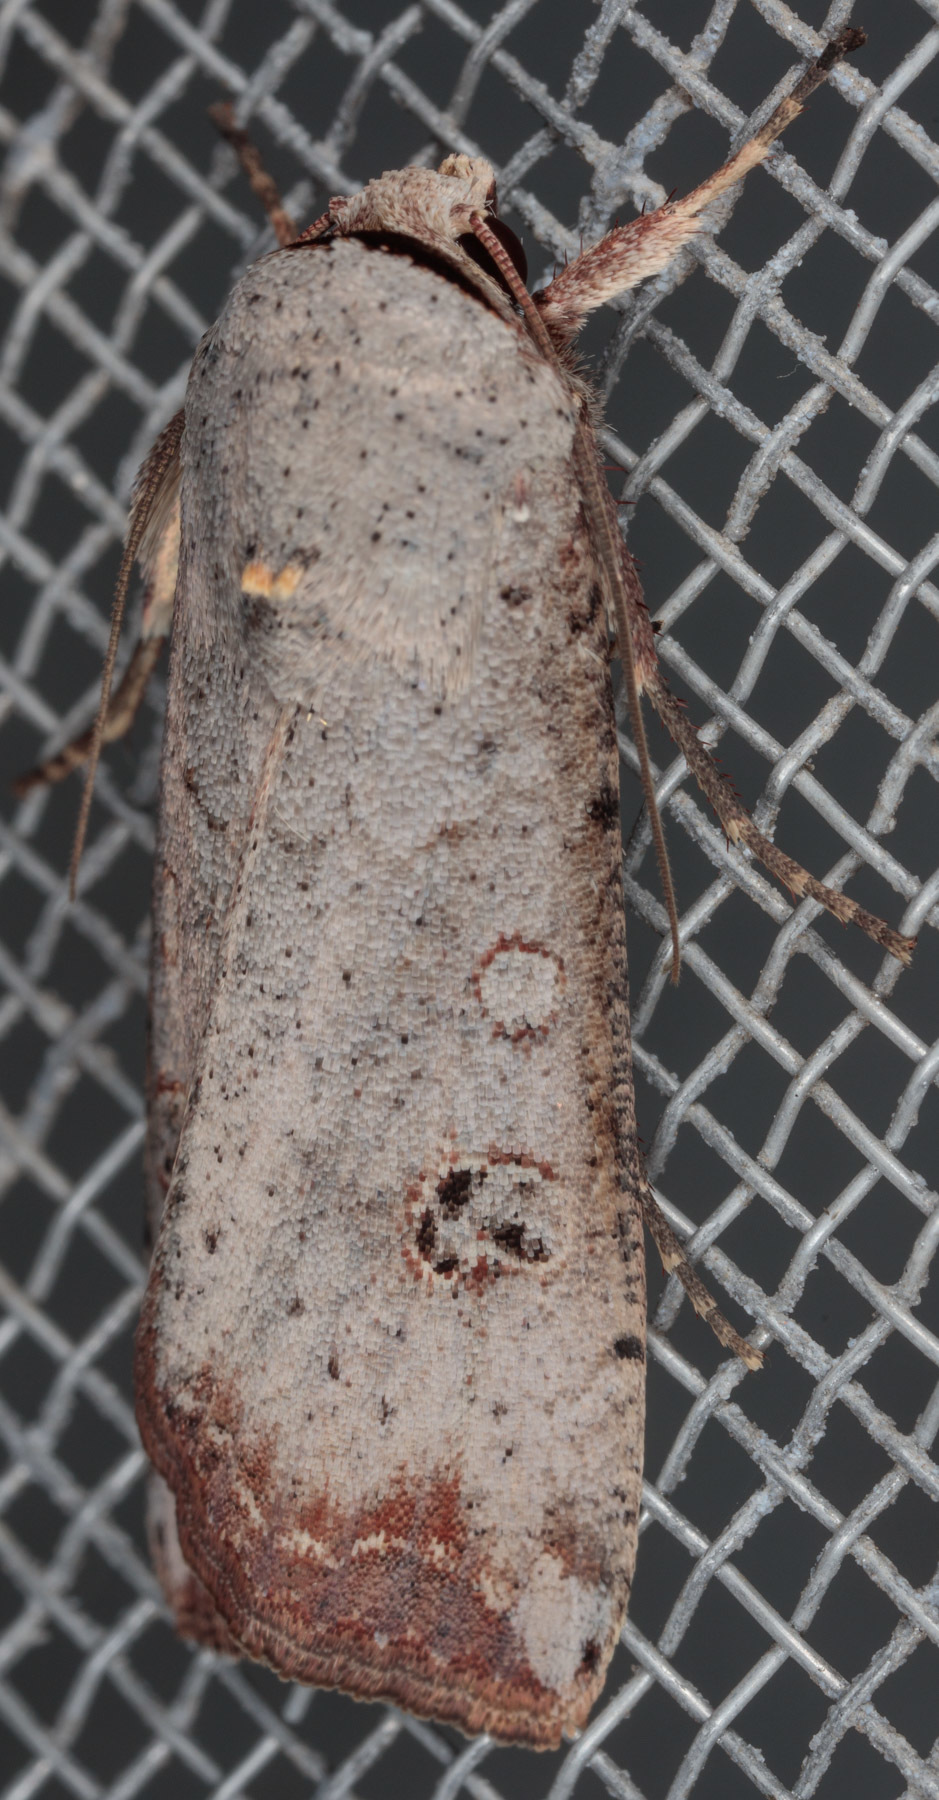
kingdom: Animalia
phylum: Arthropoda
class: Insecta
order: Lepidoptera
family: Noctuidae
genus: Anicla
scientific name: Anicla infecta
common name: Green cutworm
